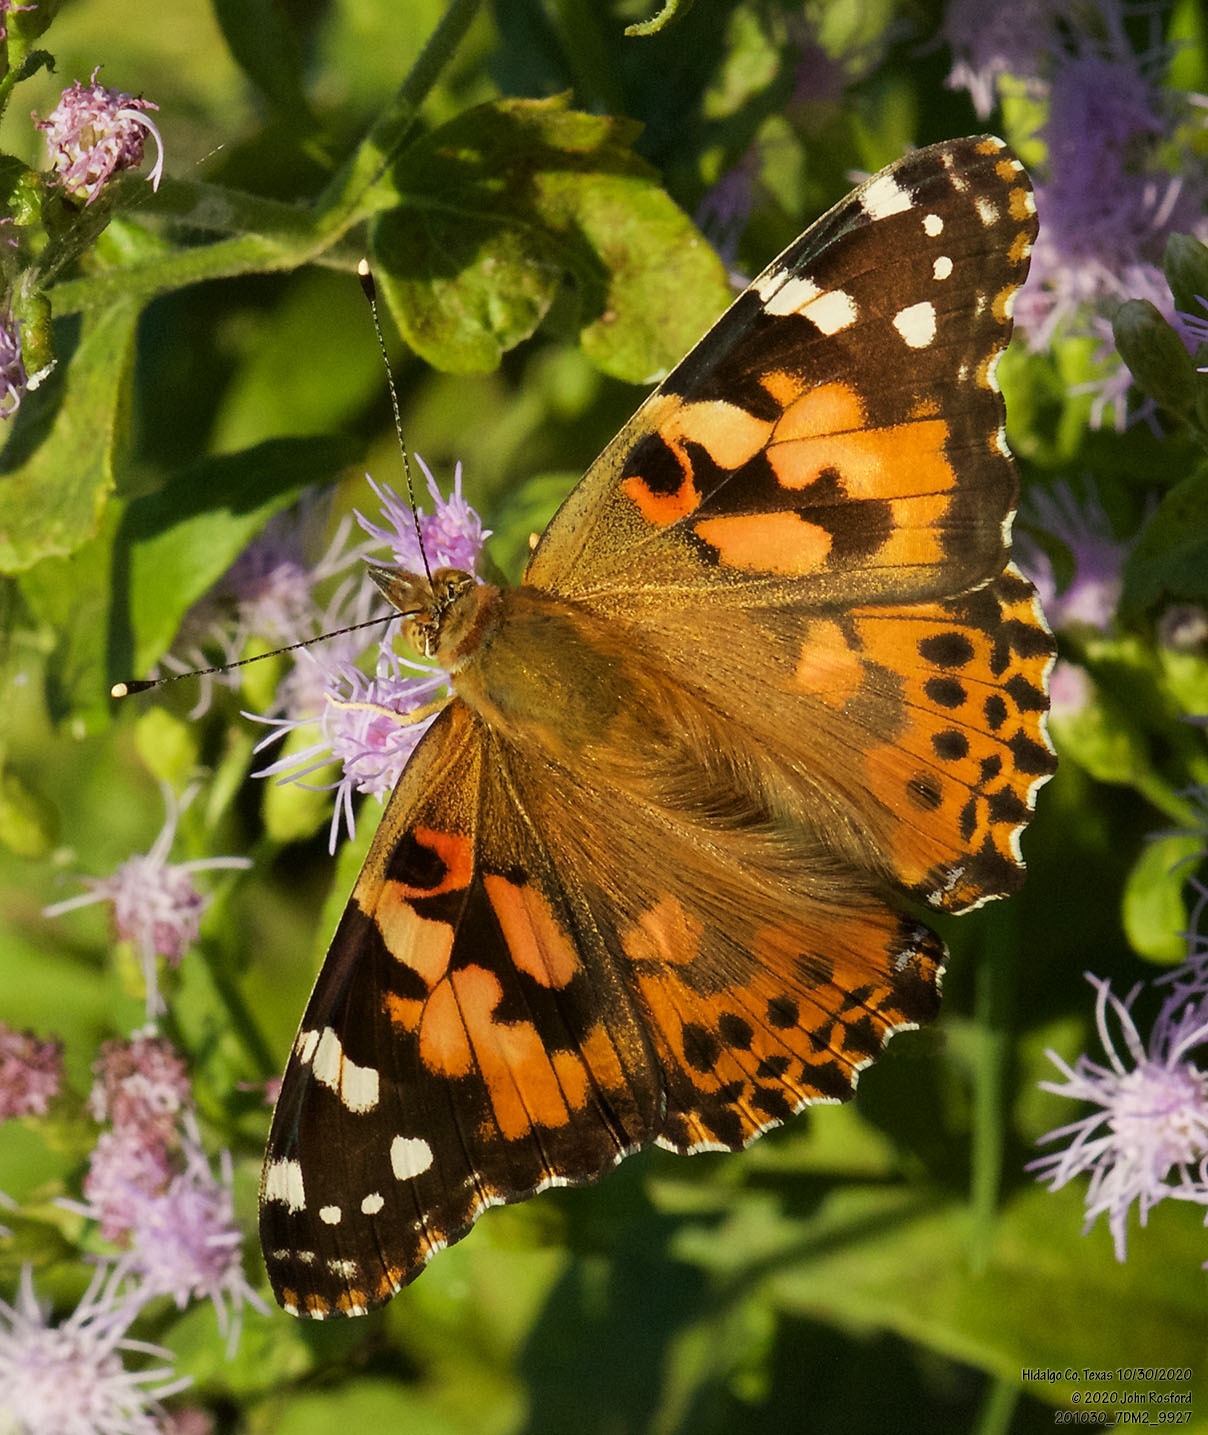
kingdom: Animalia
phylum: Arthropoda
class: Insecta
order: Lepidoptera
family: Nymphalidae
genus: Vanessa
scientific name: Vanessa cardui
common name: Painted lady
